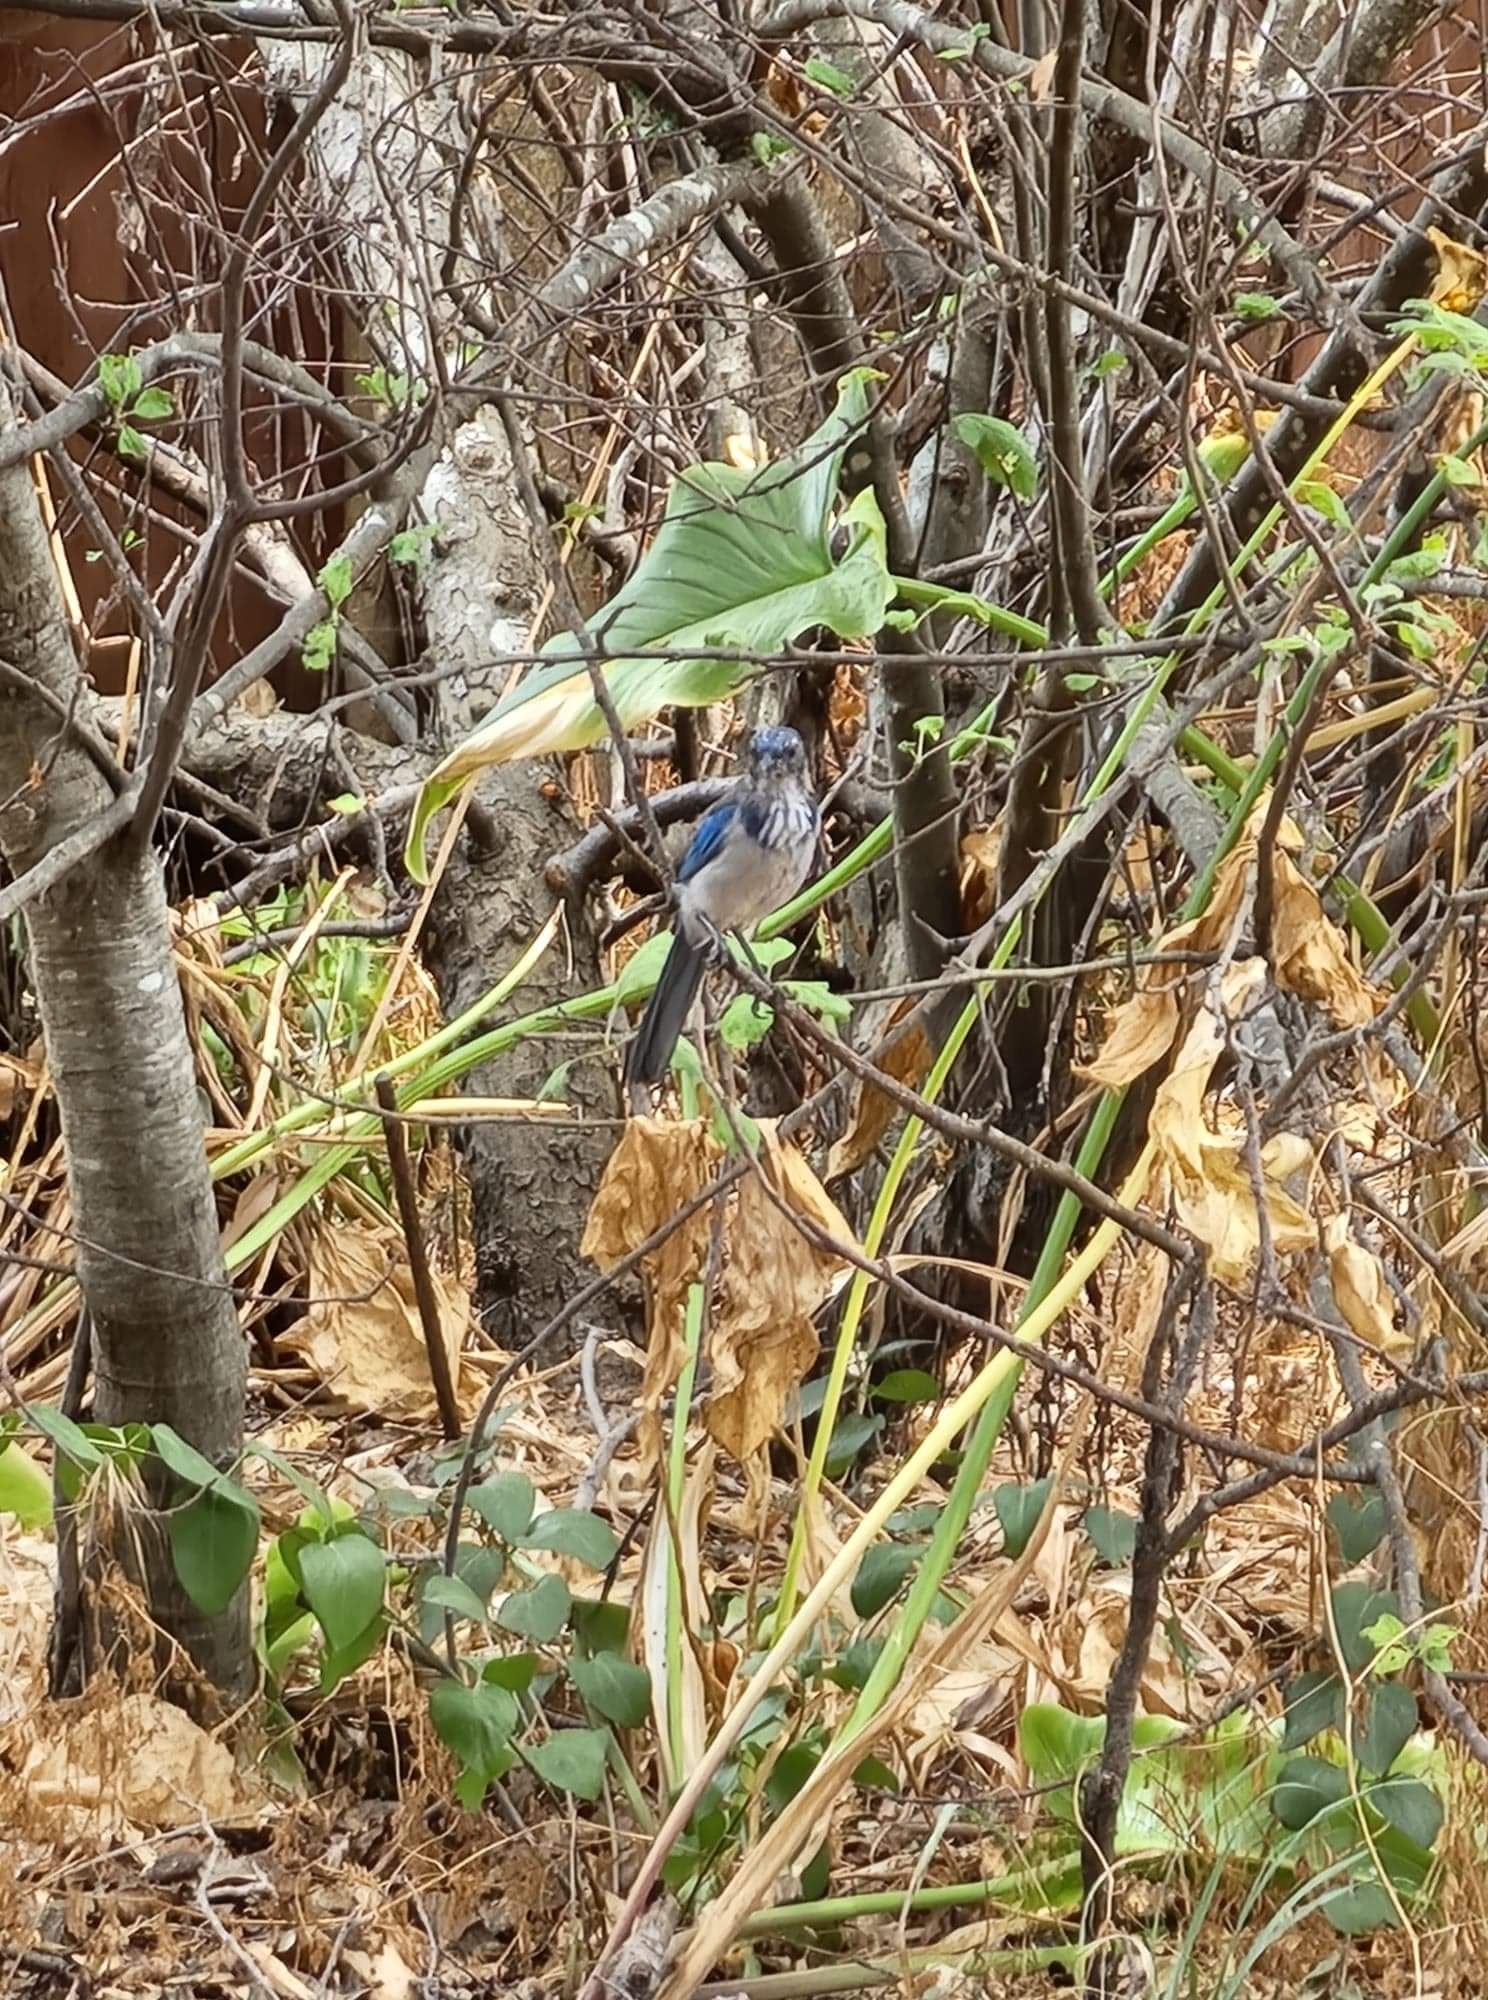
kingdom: Animalia
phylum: Chordata
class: Aves
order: Passeriformes
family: Corvidae
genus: Aphelocoma
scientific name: Aphelocoma californica
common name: California scrub-jay
